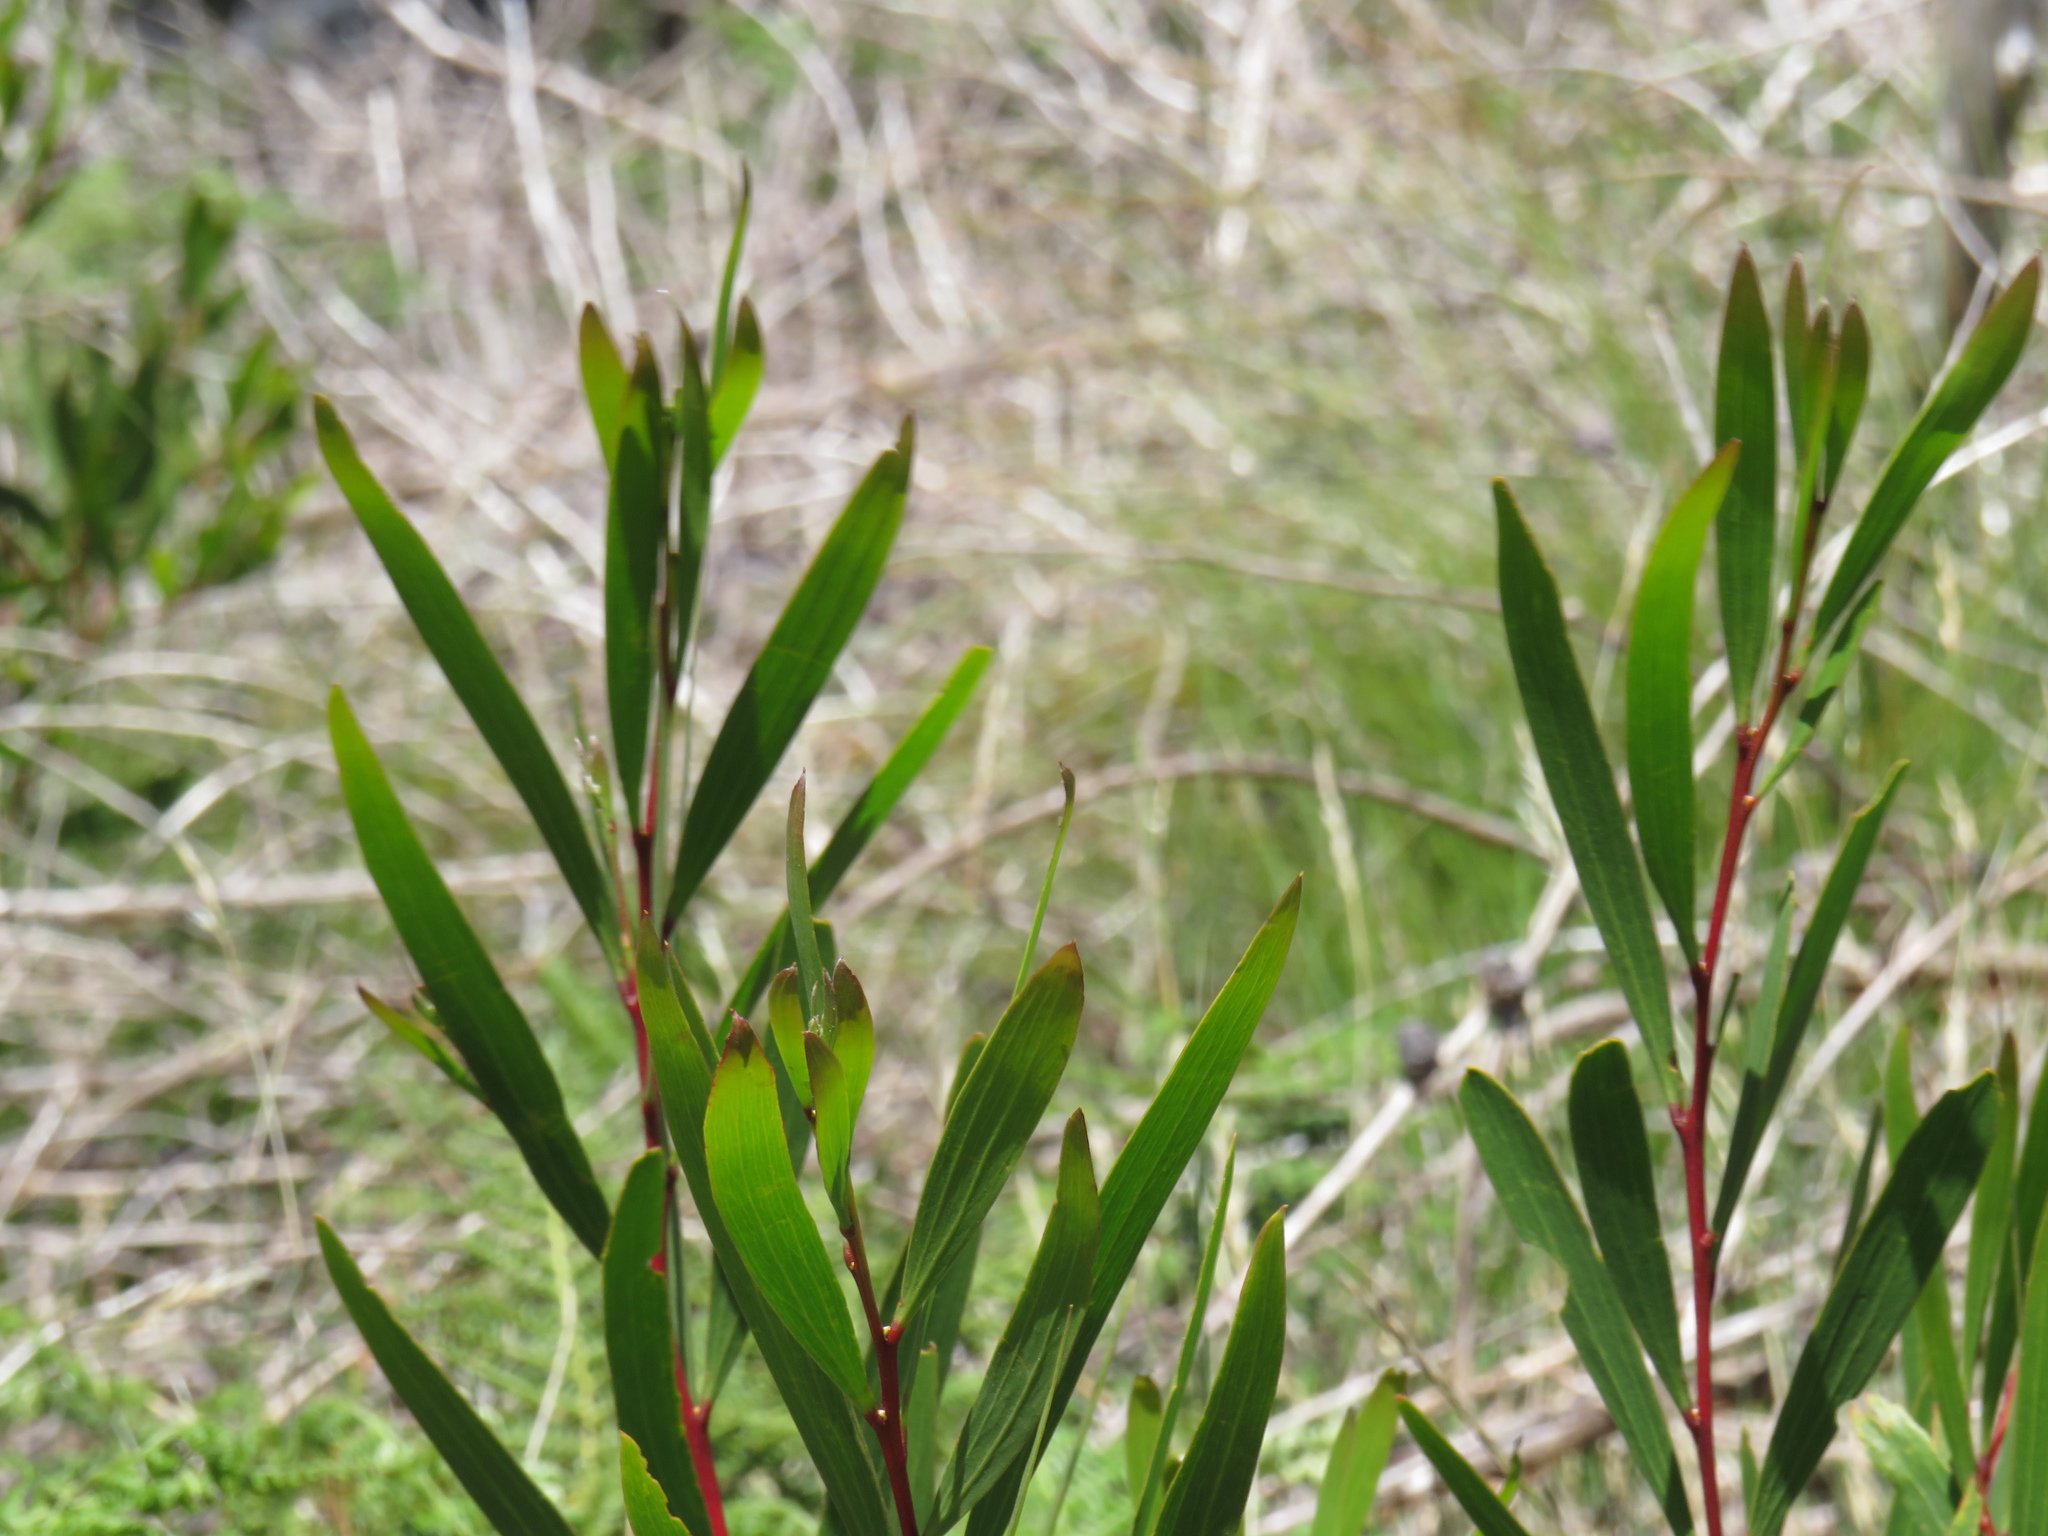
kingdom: Plantae
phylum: Tracheophyta
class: Magnoliopsida
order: Fabales
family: Fabaceae
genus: Acacia
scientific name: Acacia longifolia
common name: Sydney golden wattle
